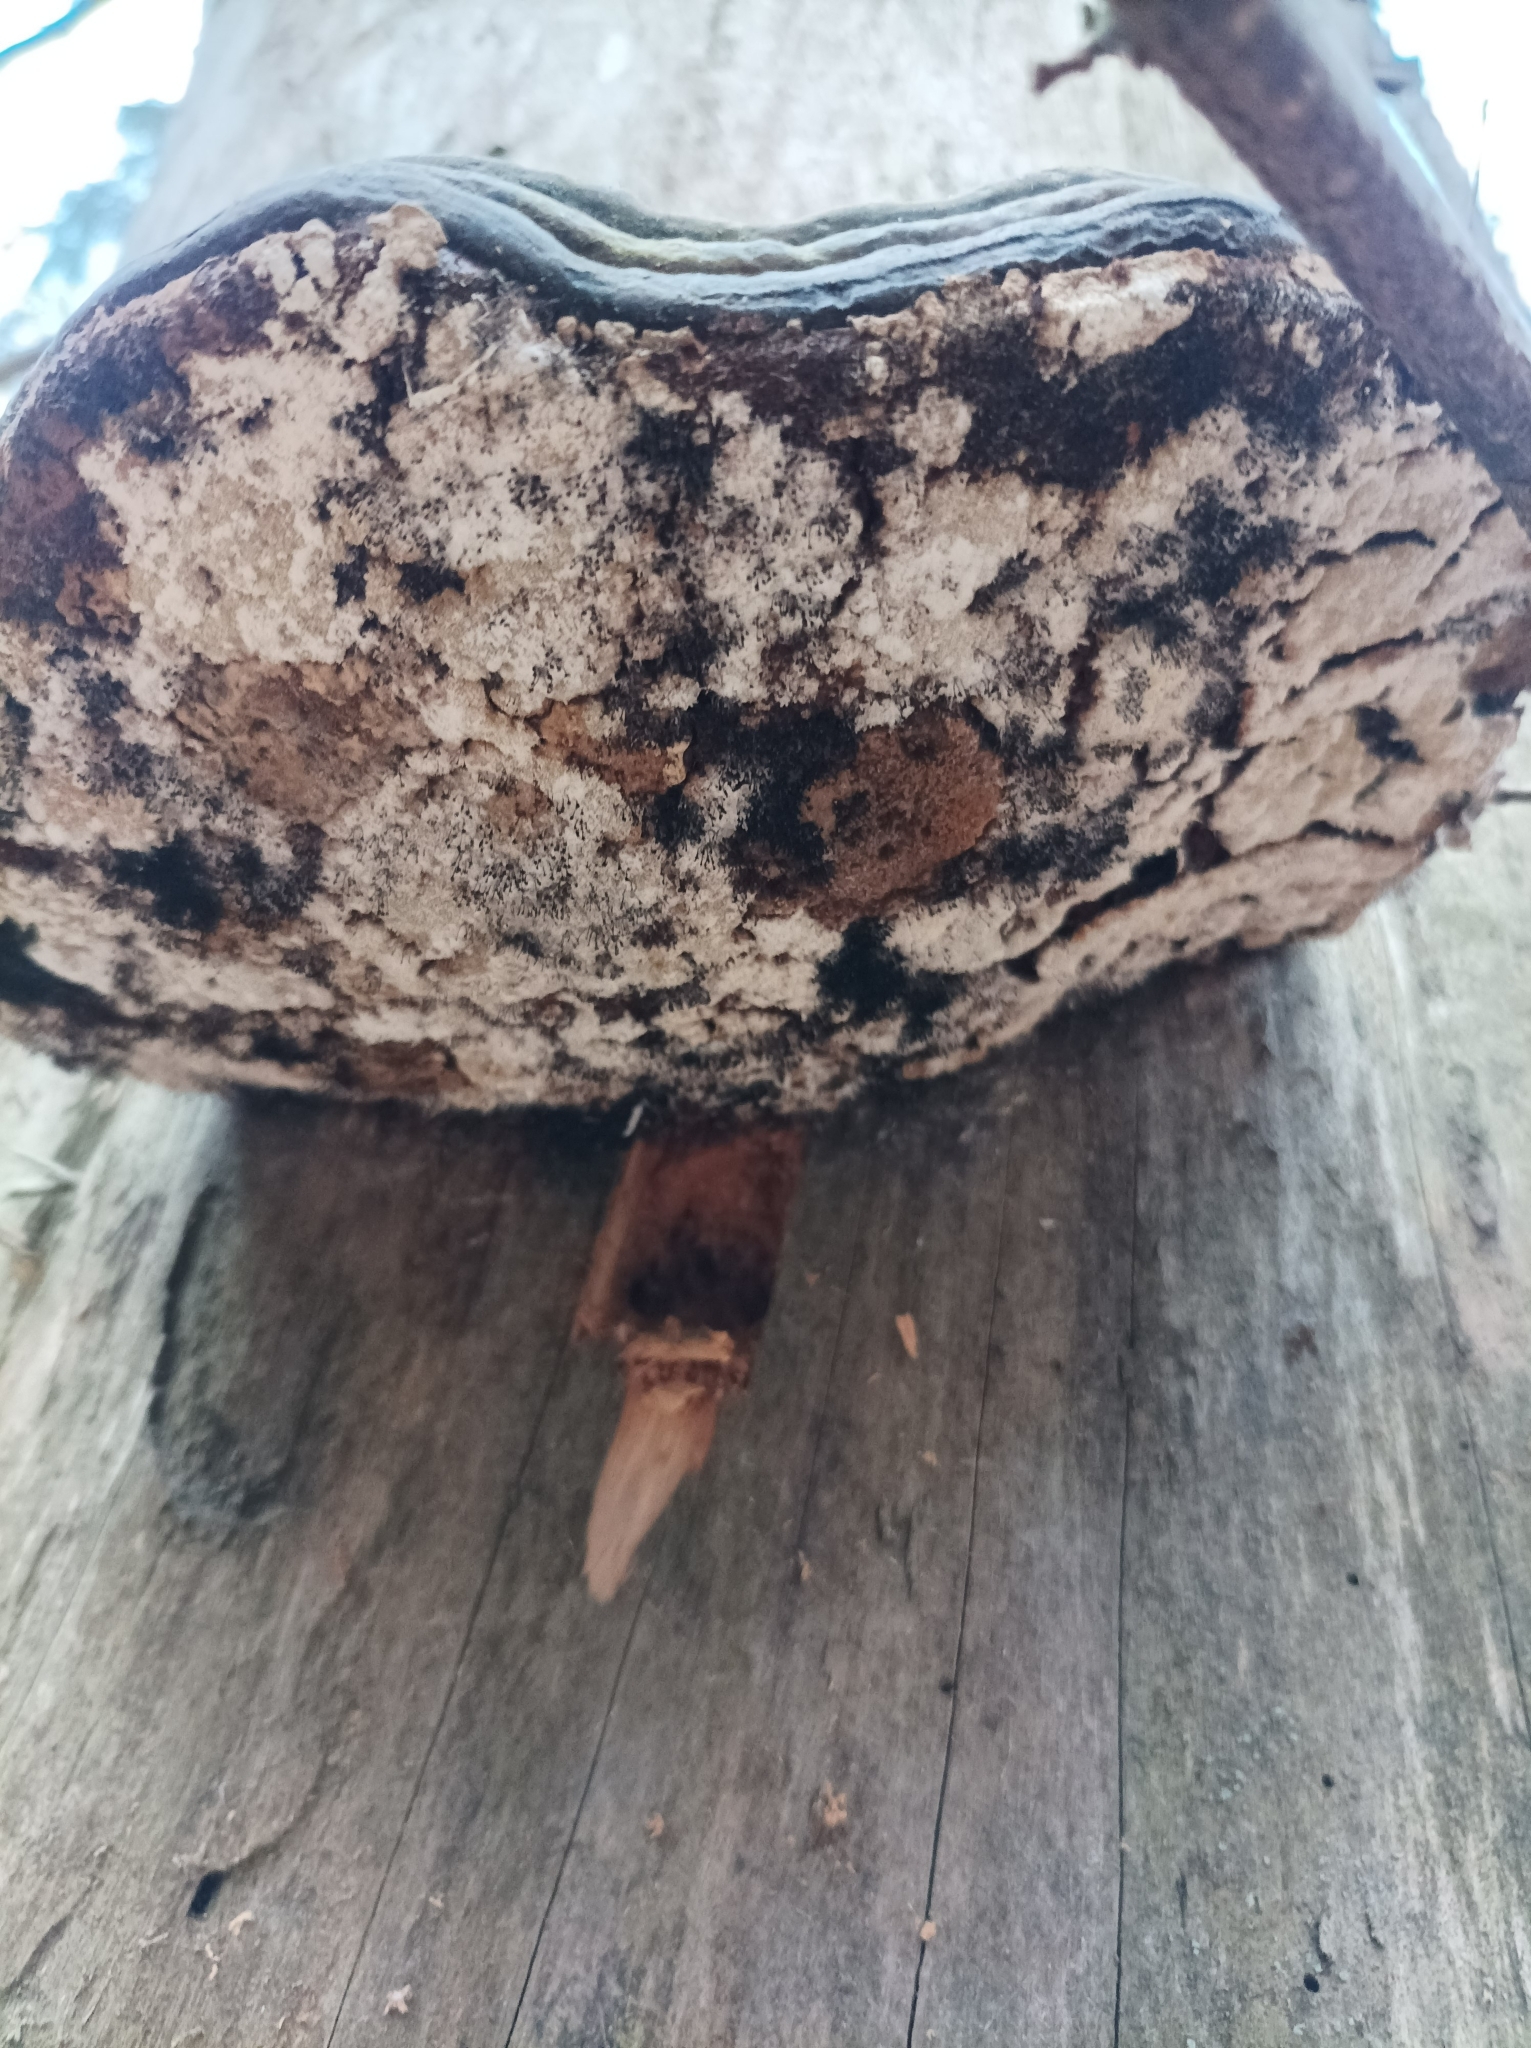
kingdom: Fungi
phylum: Basidiomycota
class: Agaricomycetes
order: Polyporales
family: Fomitopsidaceae
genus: Fomitopsis
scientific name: Fomitopsis pinicola
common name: Red-belted bracket
